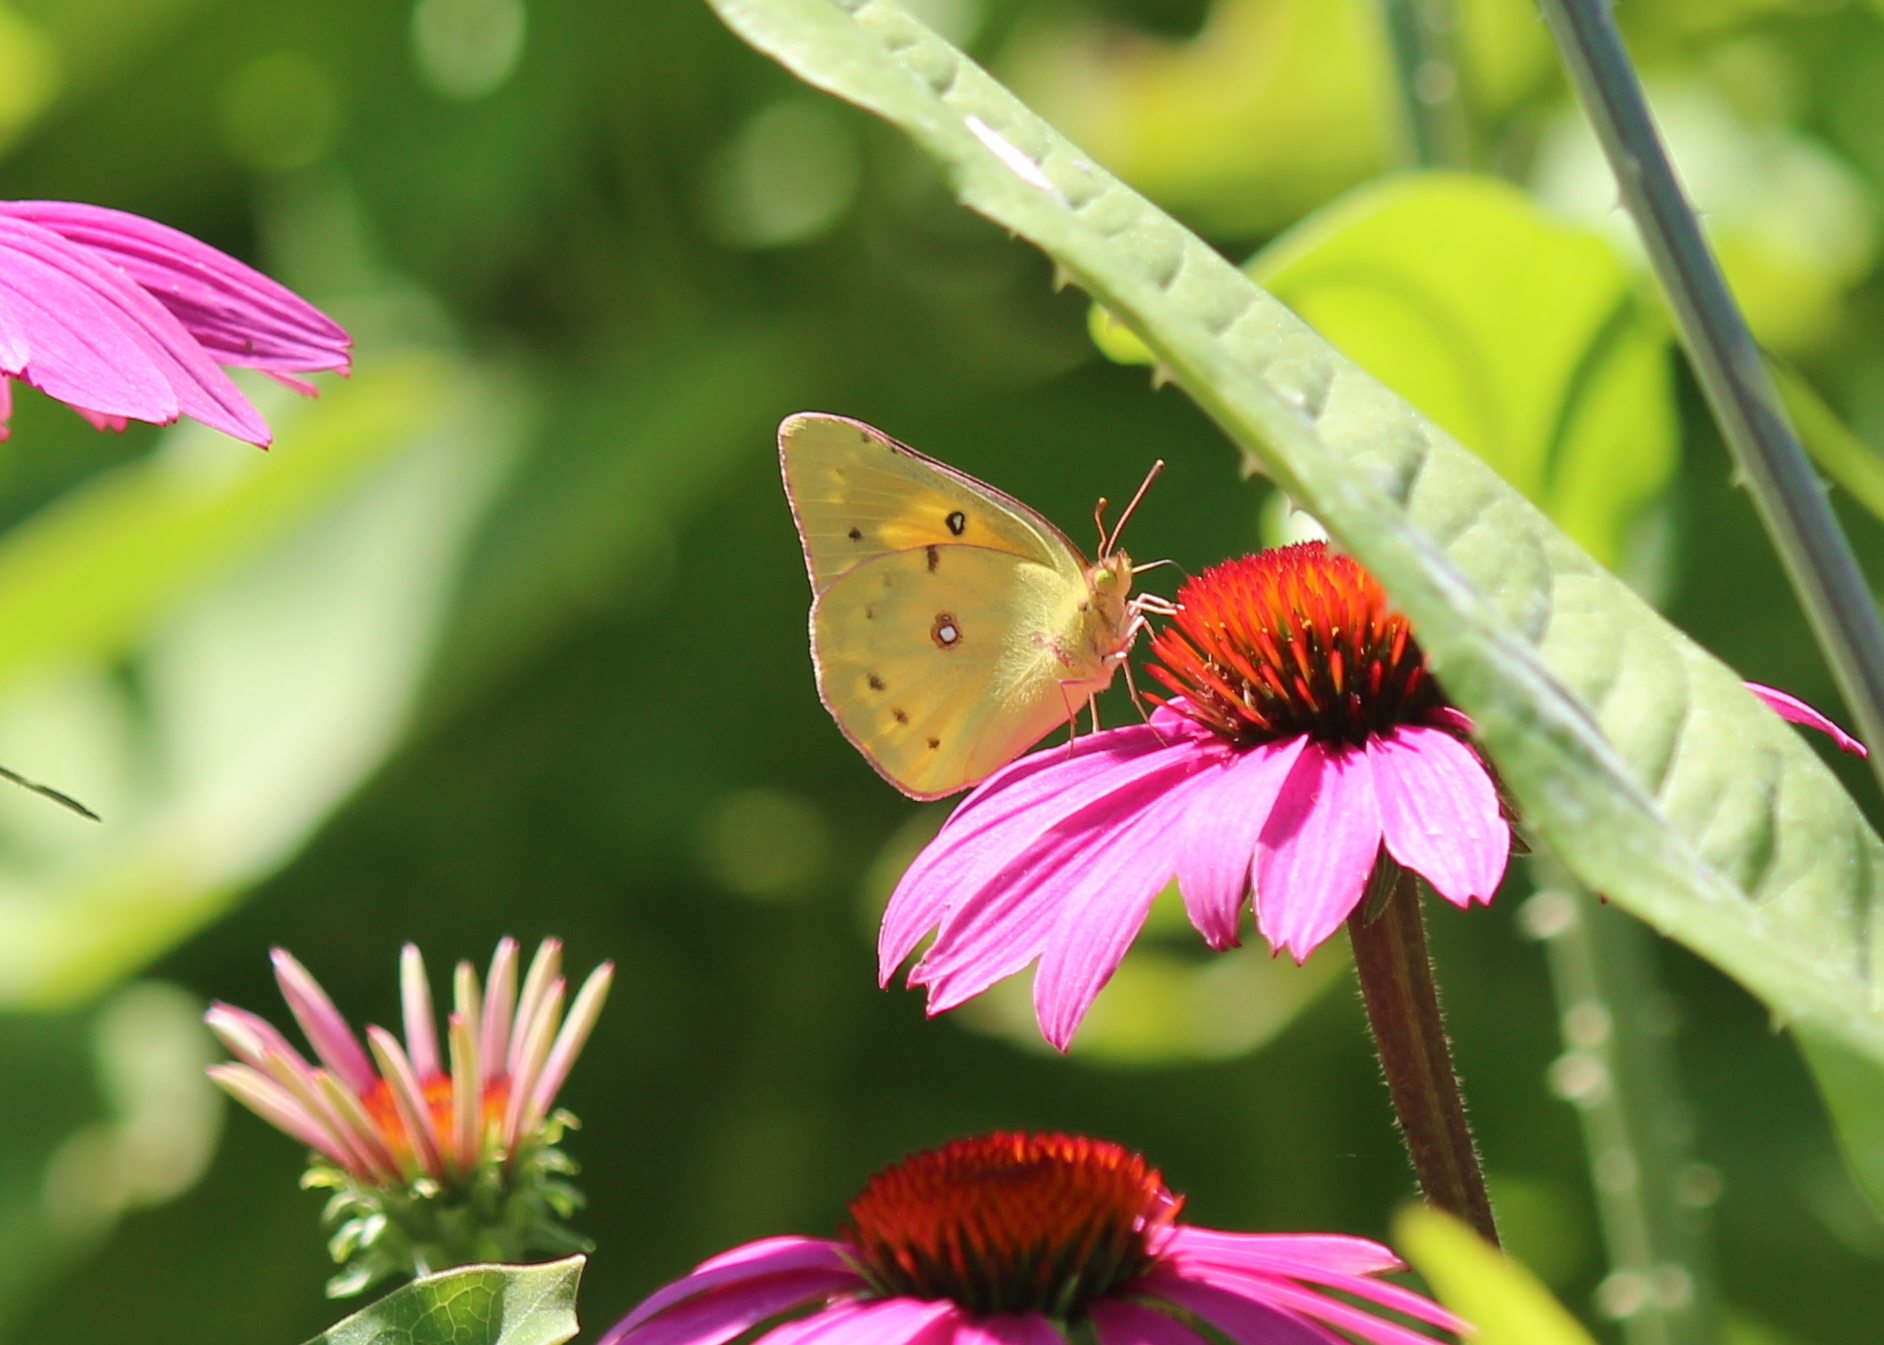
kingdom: Animalia
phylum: Arthropoda
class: Insecta
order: Lepidoptera
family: Pieridae
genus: Colias
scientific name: Colias eurytheme
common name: Alfalfa butterfly
